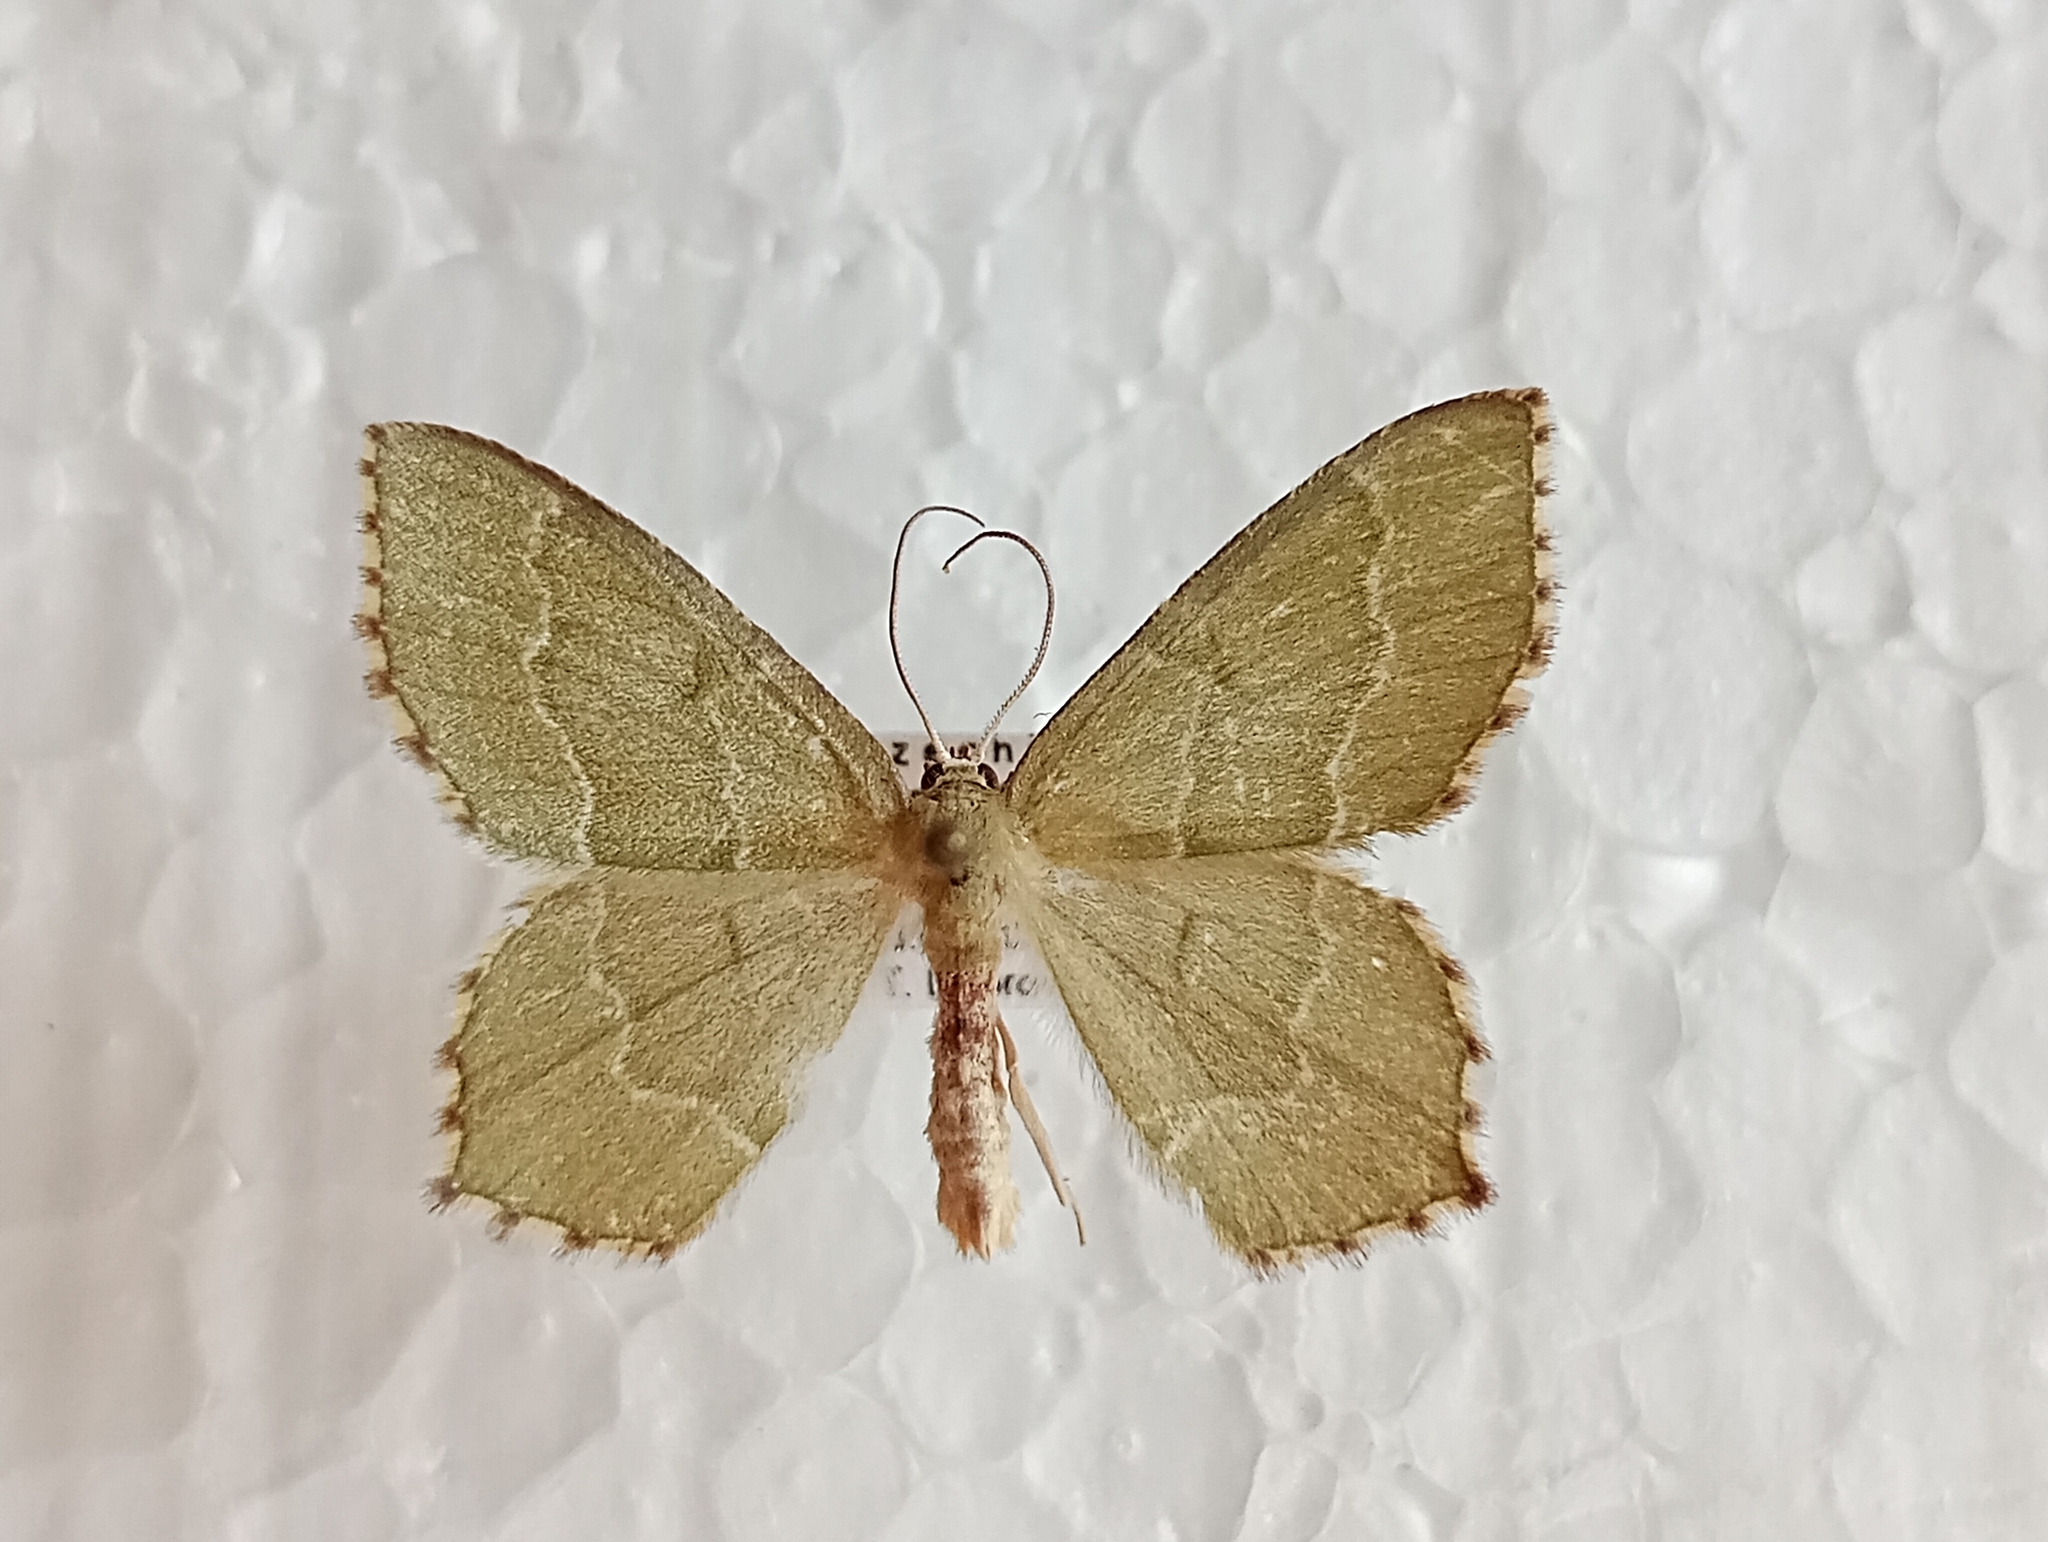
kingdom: Animalia
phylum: Arthropoda
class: Insecta
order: Lepidoptera
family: Geometridae
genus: Hemithea
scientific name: Hemithea aestivaria
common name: Common emerald
